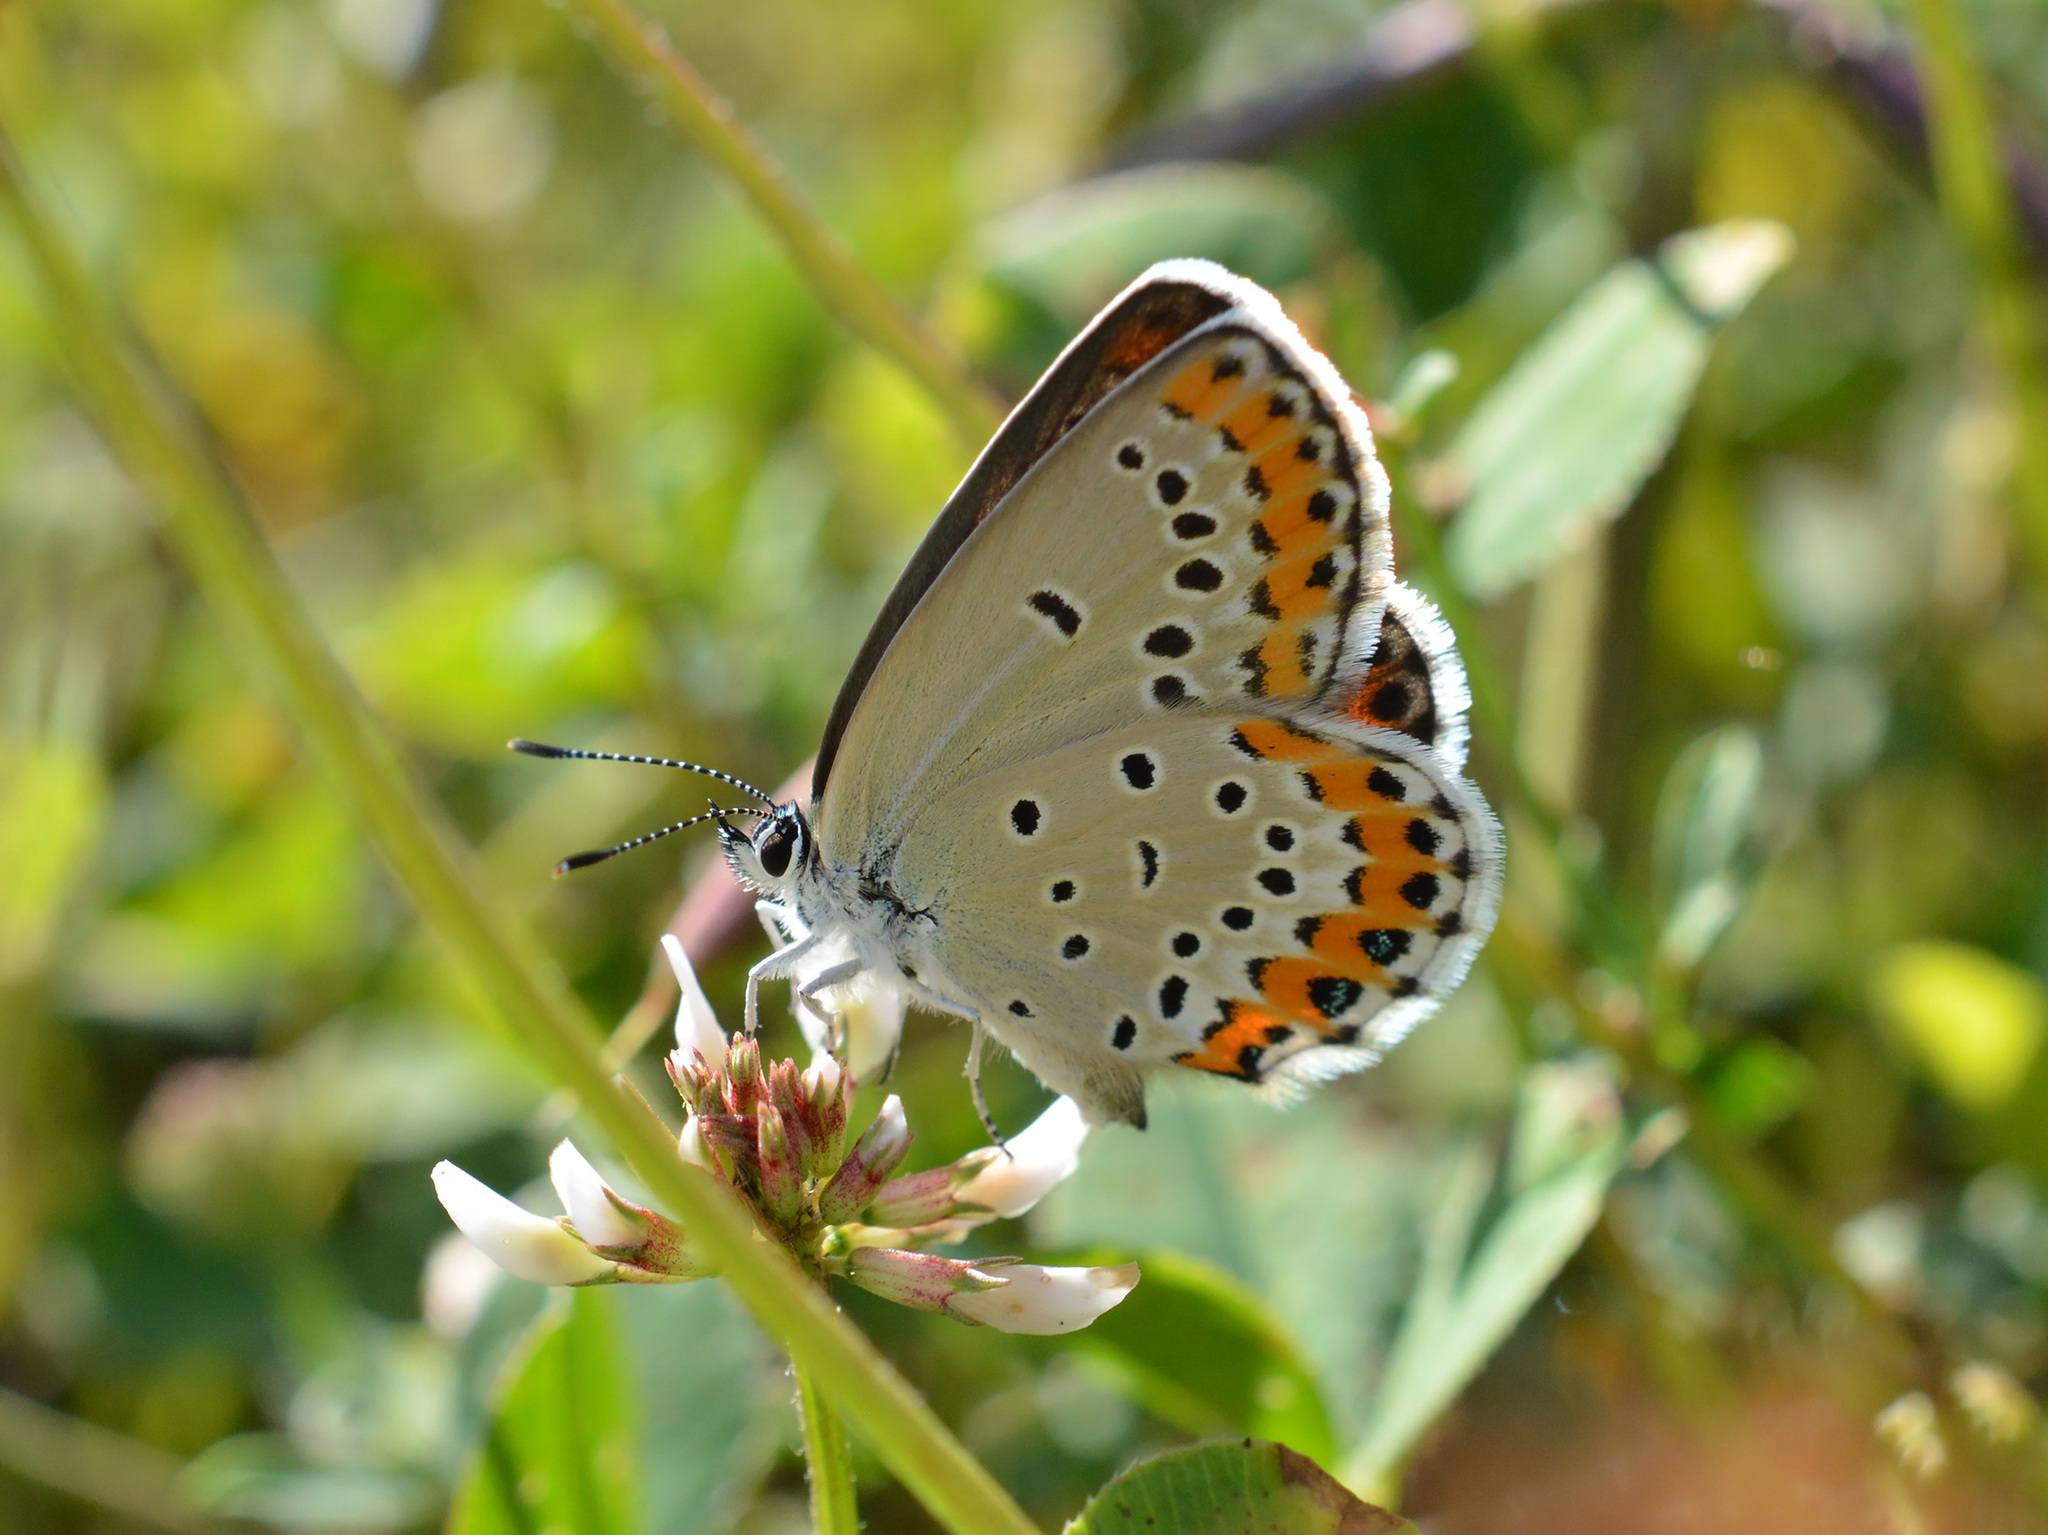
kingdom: Animalia
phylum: Arthropoda
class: Insecta
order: Lepidoptera
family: Lycaenidae
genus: Plebejus
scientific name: Plebejus argyrognomon
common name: Reverdin's blue
